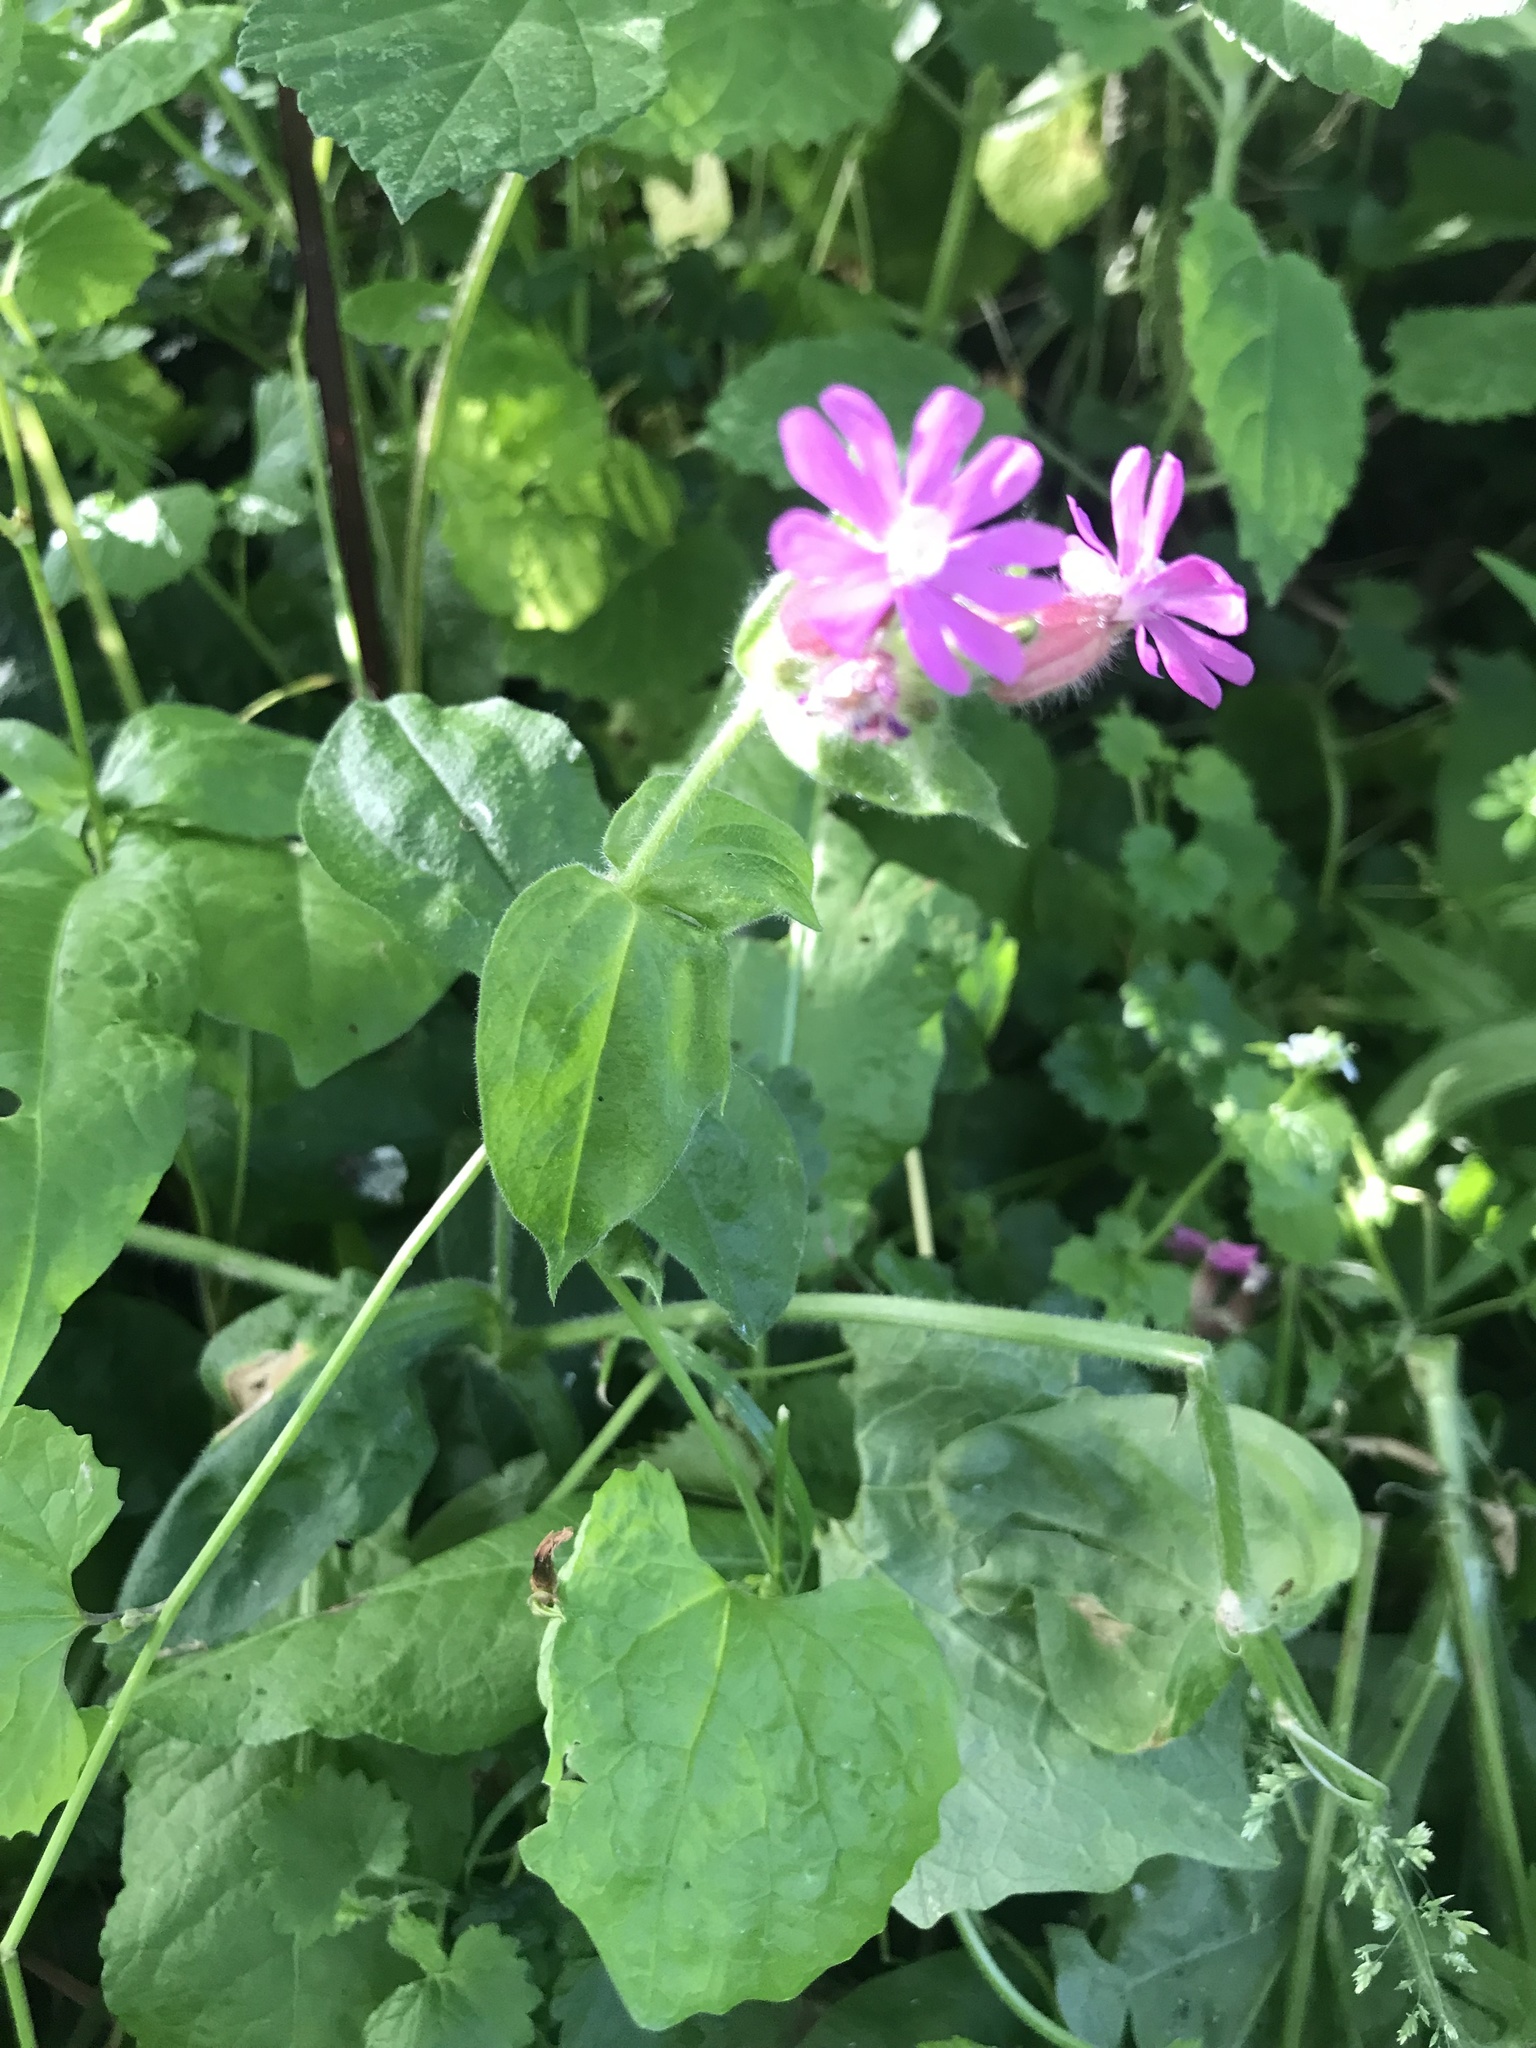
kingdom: Plantae
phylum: Tracheophyta
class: Magnoliopsida
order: Caryophyllales
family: Caryophyllaceae
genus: Silene
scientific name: Silene dioica
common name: Red campion
